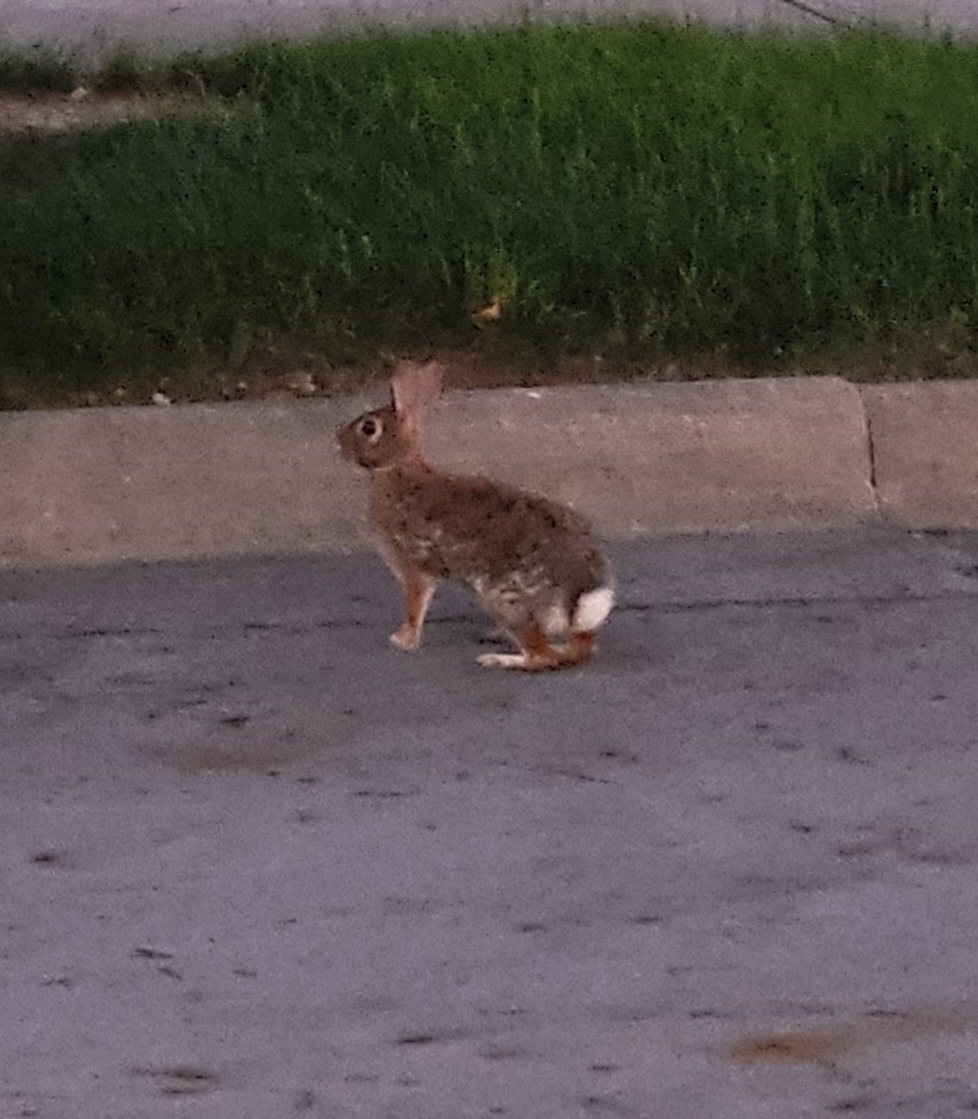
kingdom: Animalia
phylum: Chordata
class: Mammalia
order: Lagomorpha
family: Leporidae
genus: Sylvilagus
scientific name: Sylvilagus floridanus
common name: Eastern cottontail
